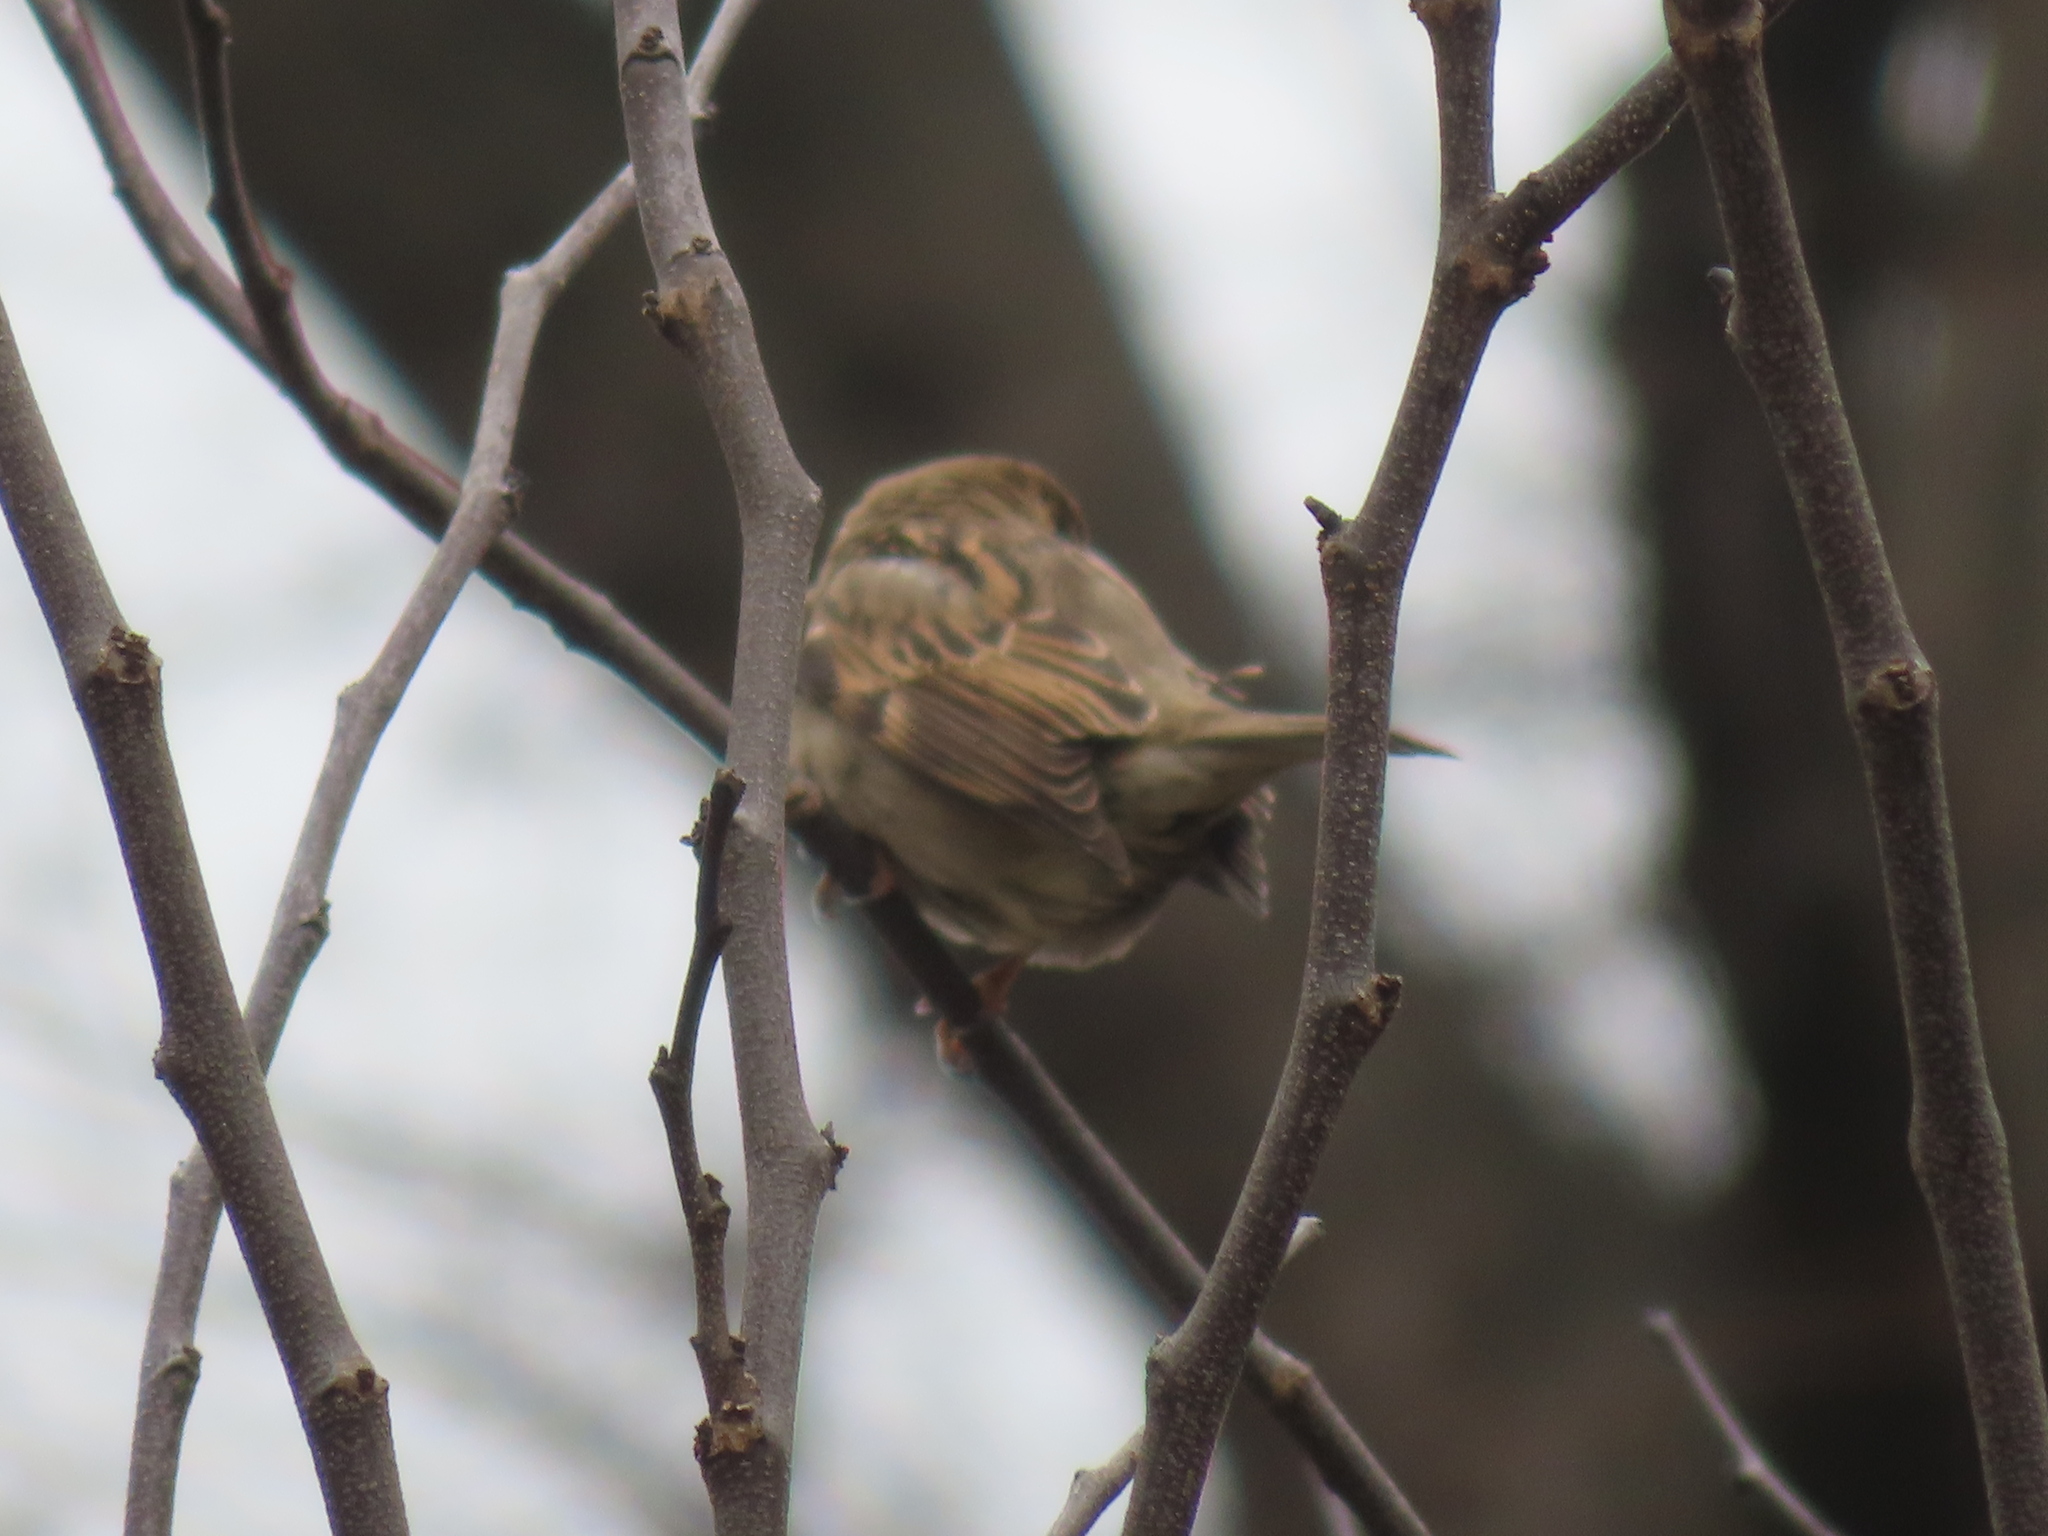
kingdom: Animalia
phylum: Chordata
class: Aves
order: Passeriformes
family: Passeridae
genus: Passer
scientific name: Passer domesticus
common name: House sparrow
